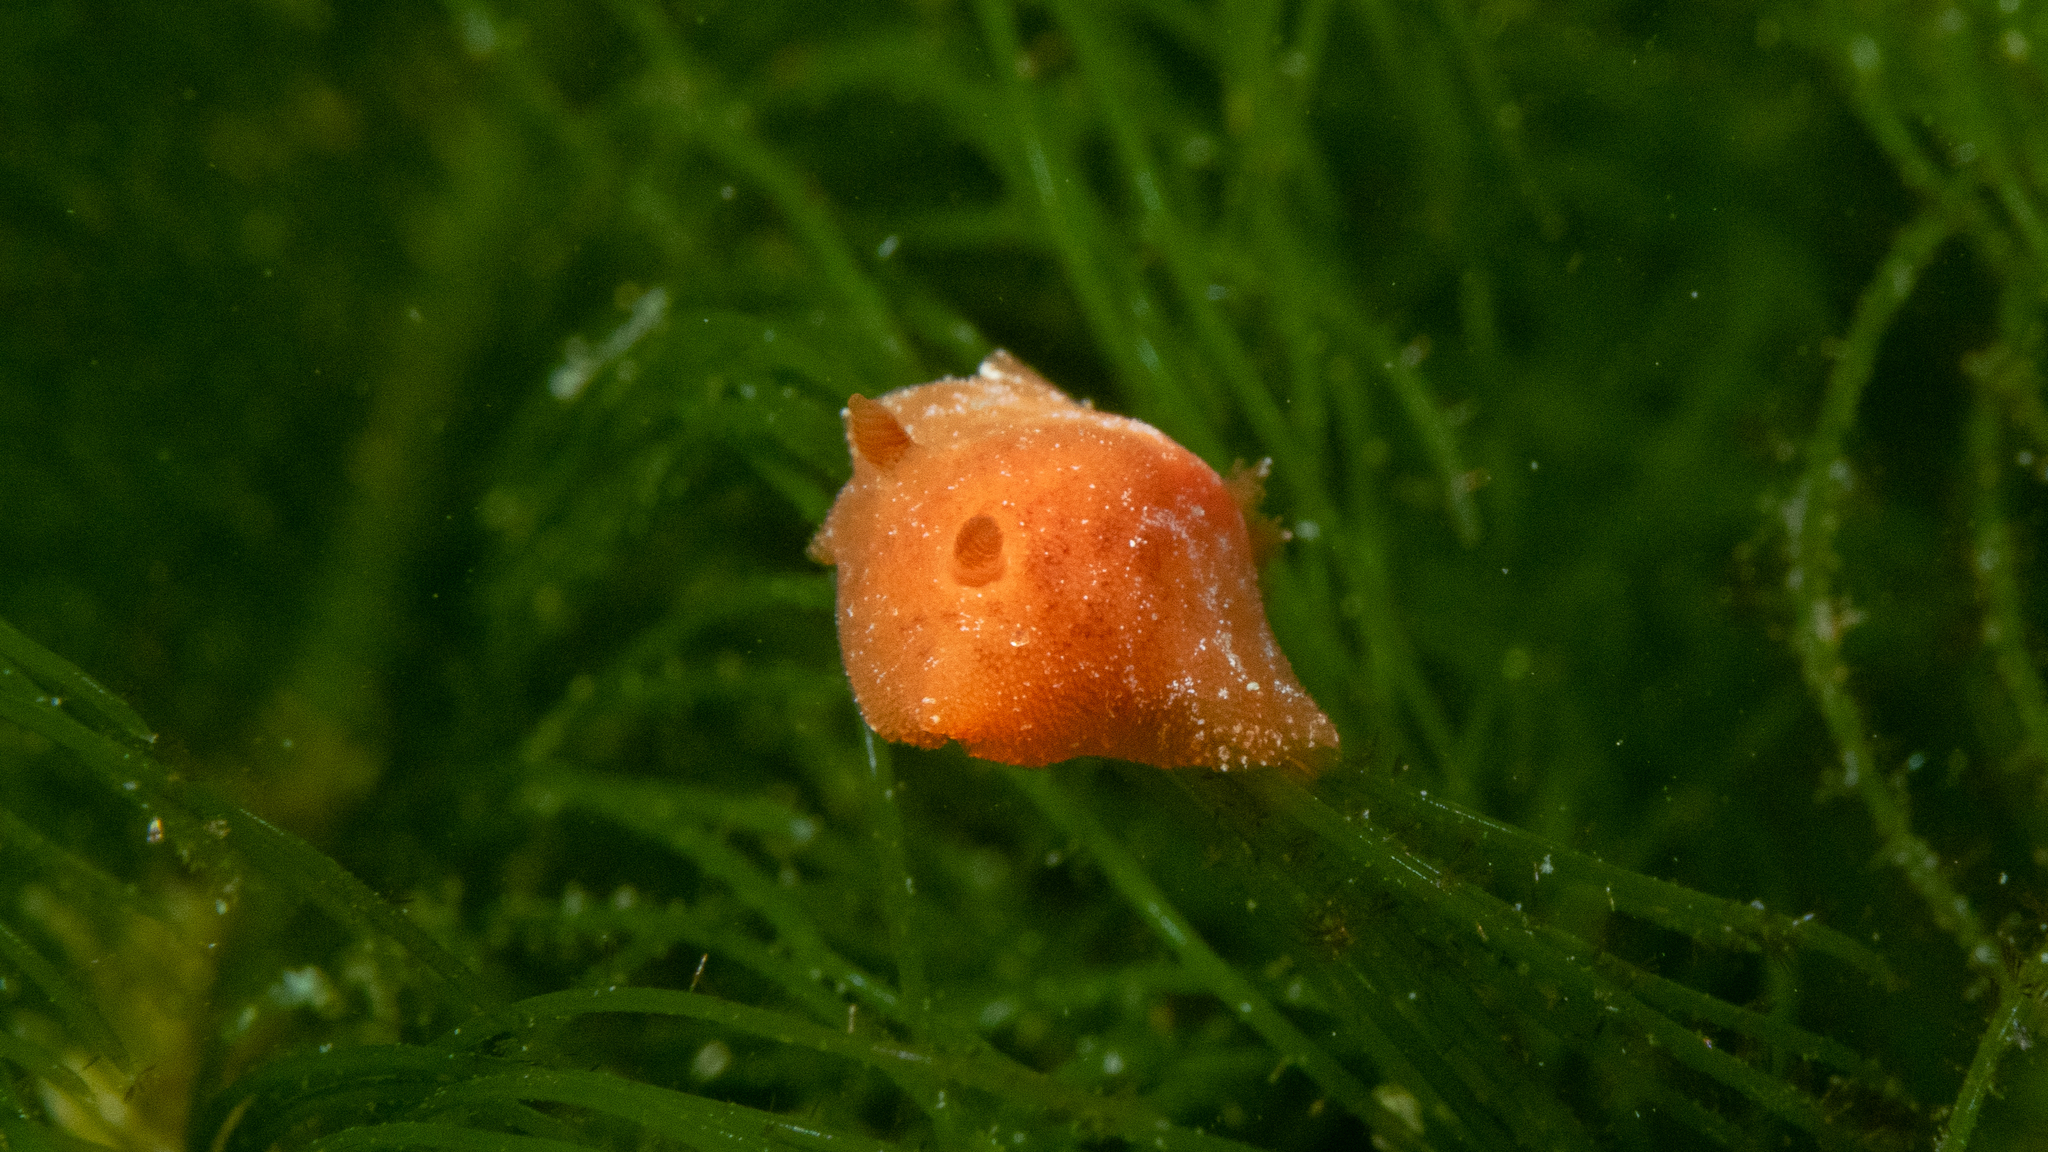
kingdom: Animalia
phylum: Mollusca
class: Gastropoda
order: Nudibranchia
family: Discodorididae
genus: Discodoris
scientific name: Discodoris paroa
